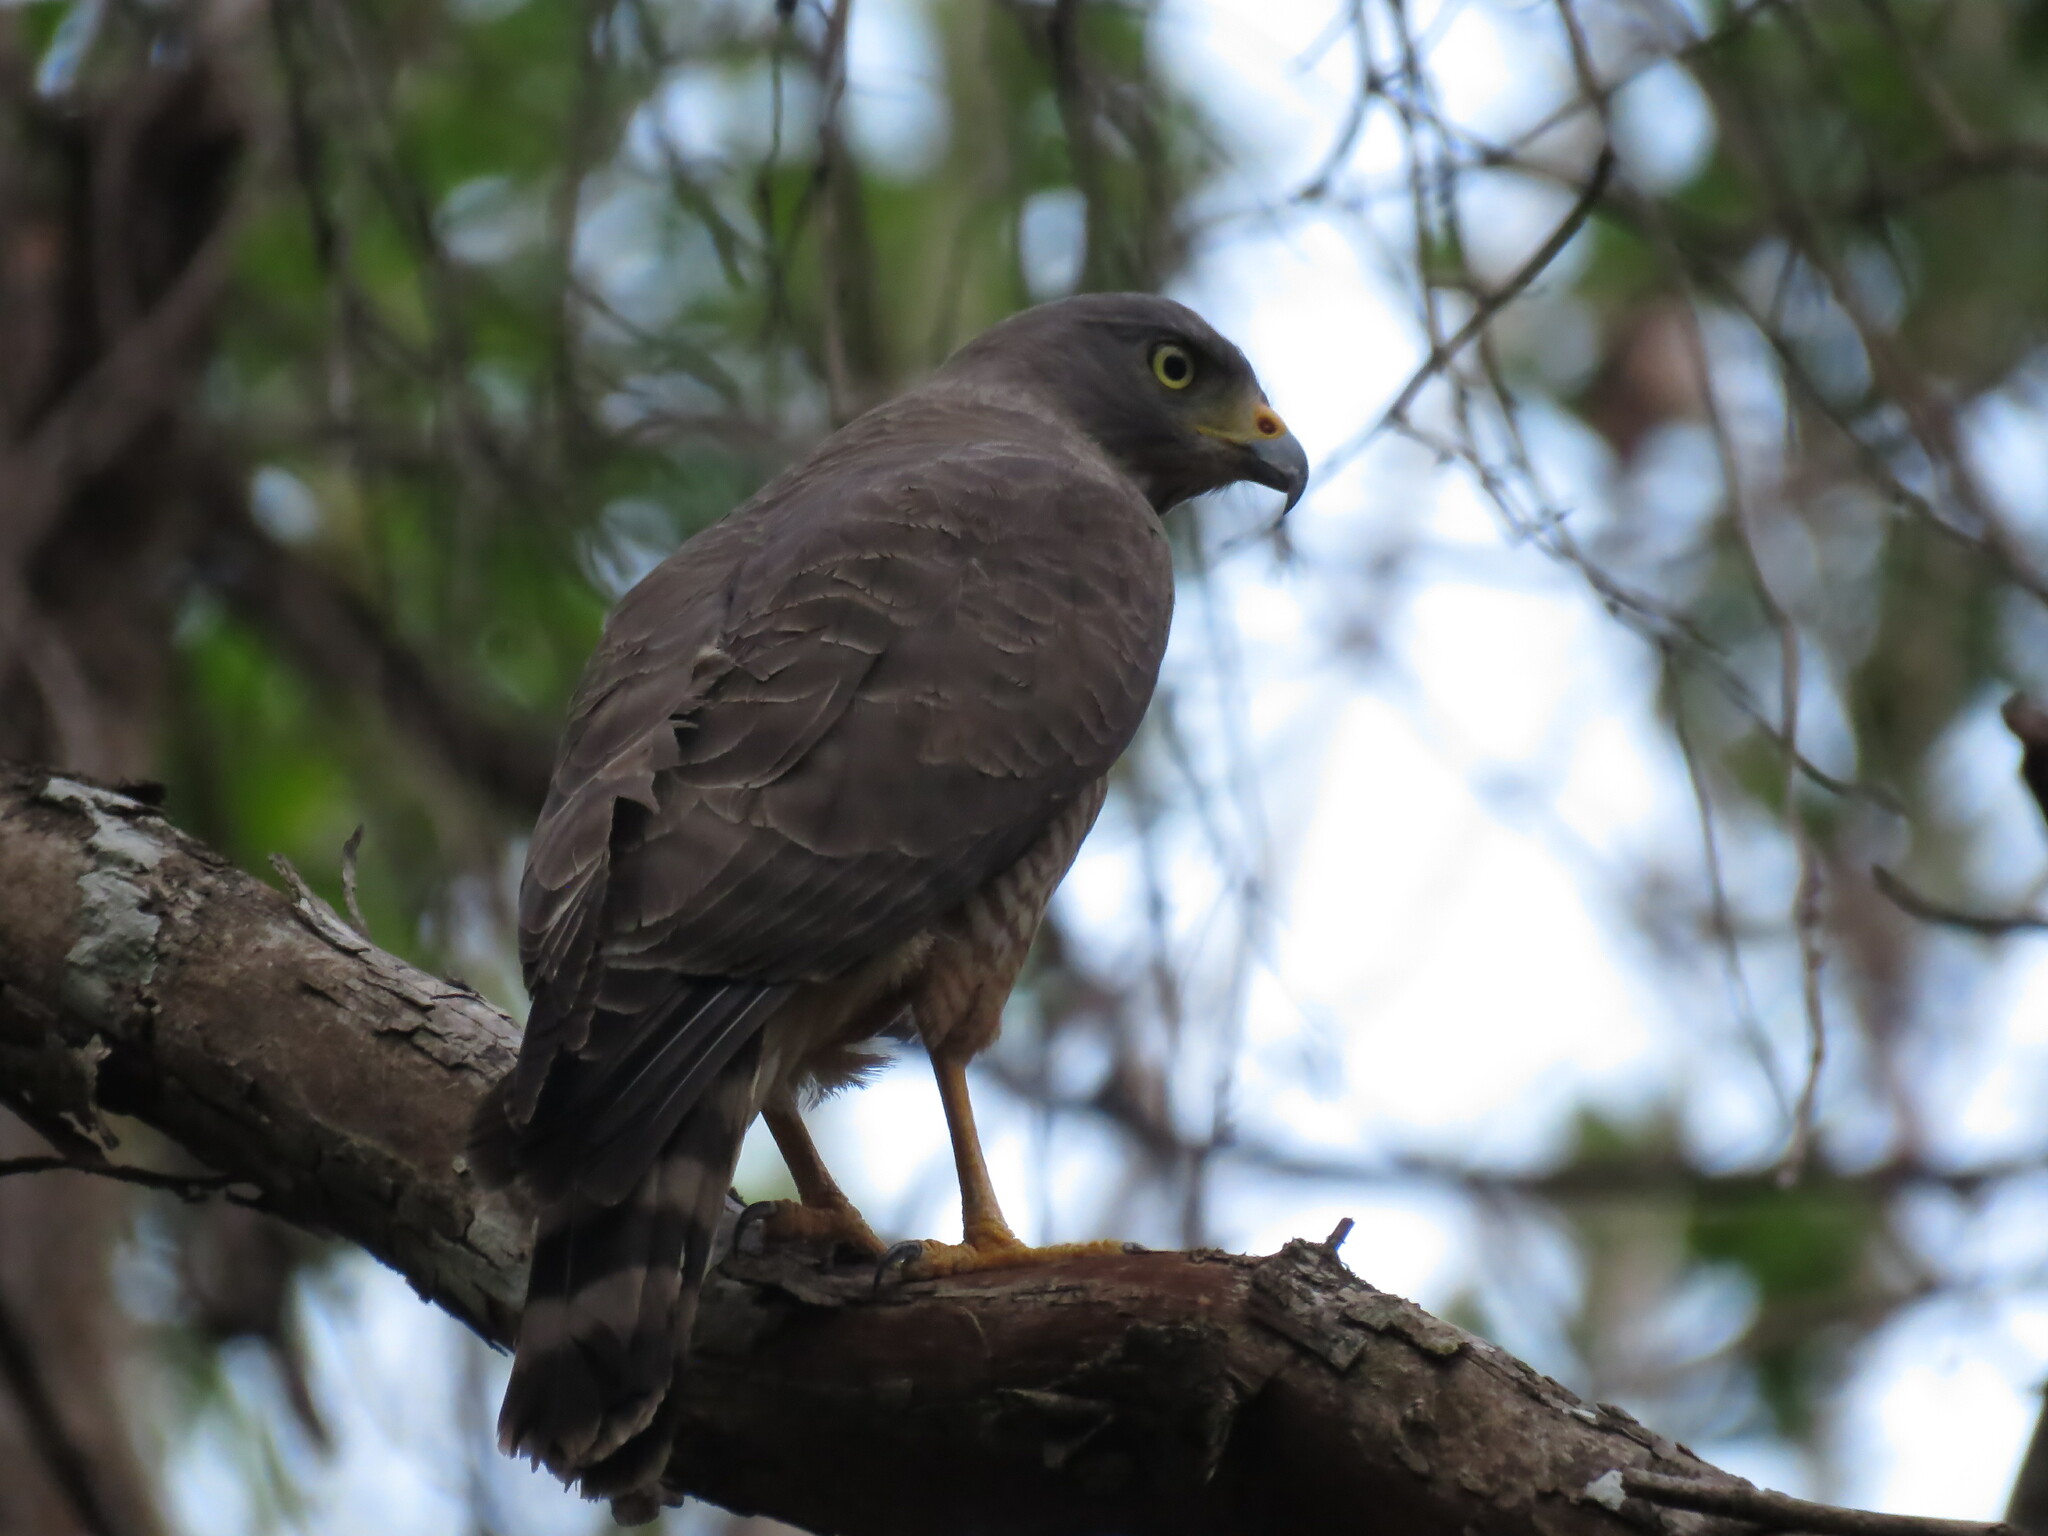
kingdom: Animalia
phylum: Chordata
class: Aves
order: Accipitriformes
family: Accipitridae
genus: Rupornis
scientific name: Rupornis magnirostris
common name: Roadside hawk
